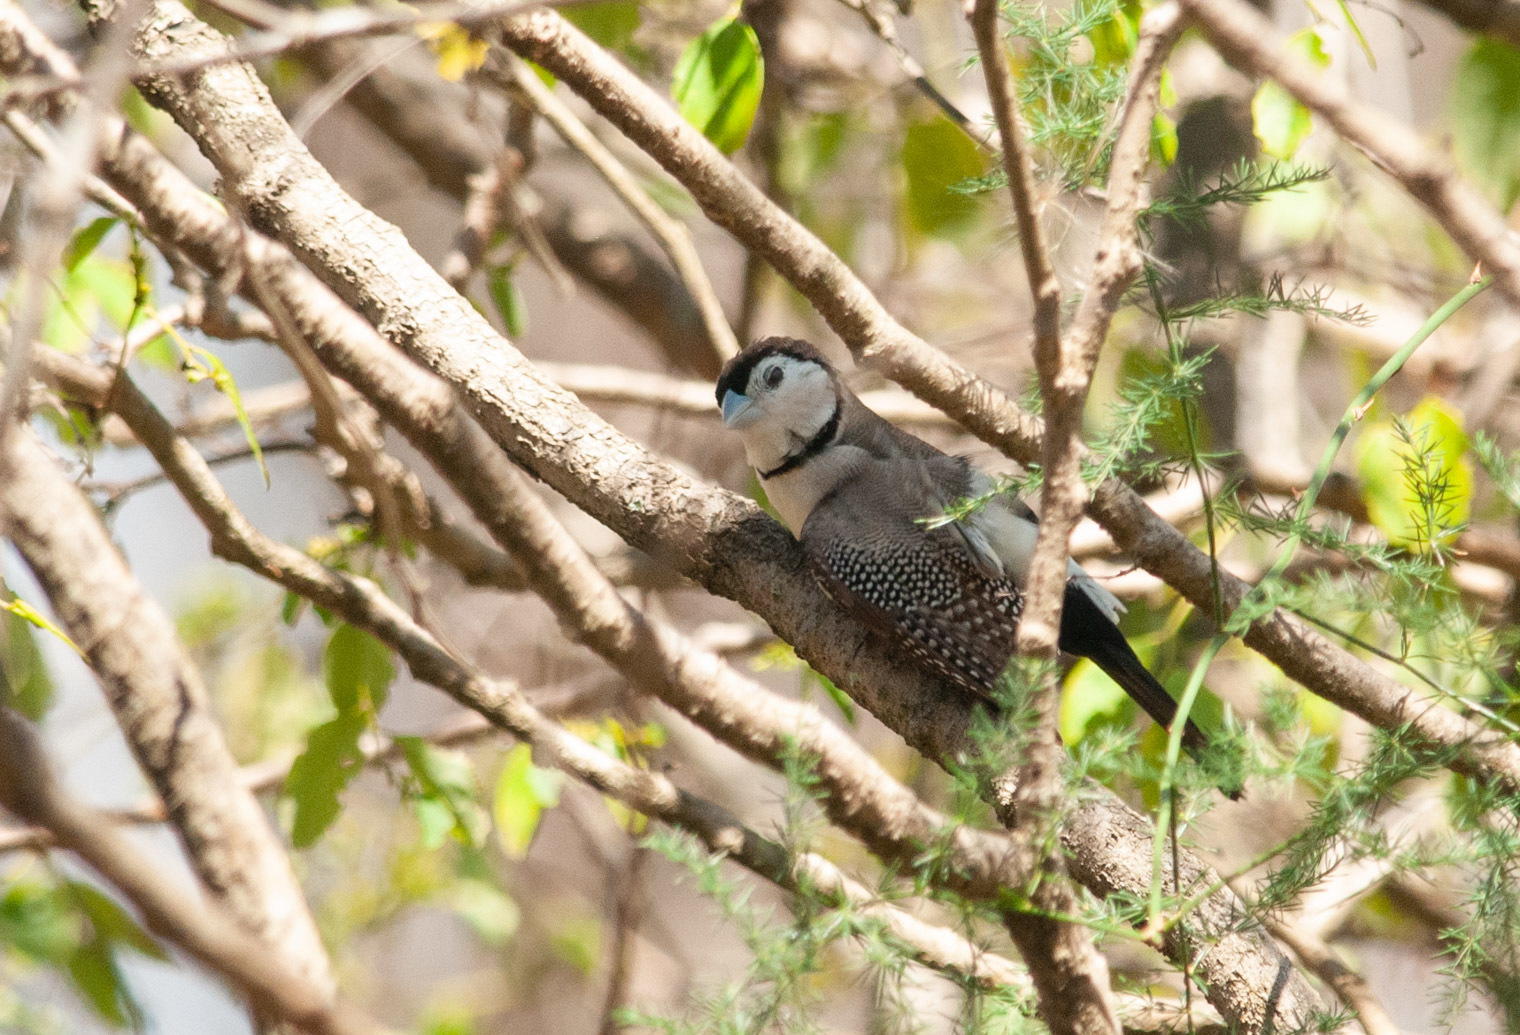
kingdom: Animalia
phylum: Chordata
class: Aves
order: Passeriformes
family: Estrildidae
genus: Taeniopygia
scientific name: Taeniopygia bichenovii
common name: Double-barred finch
